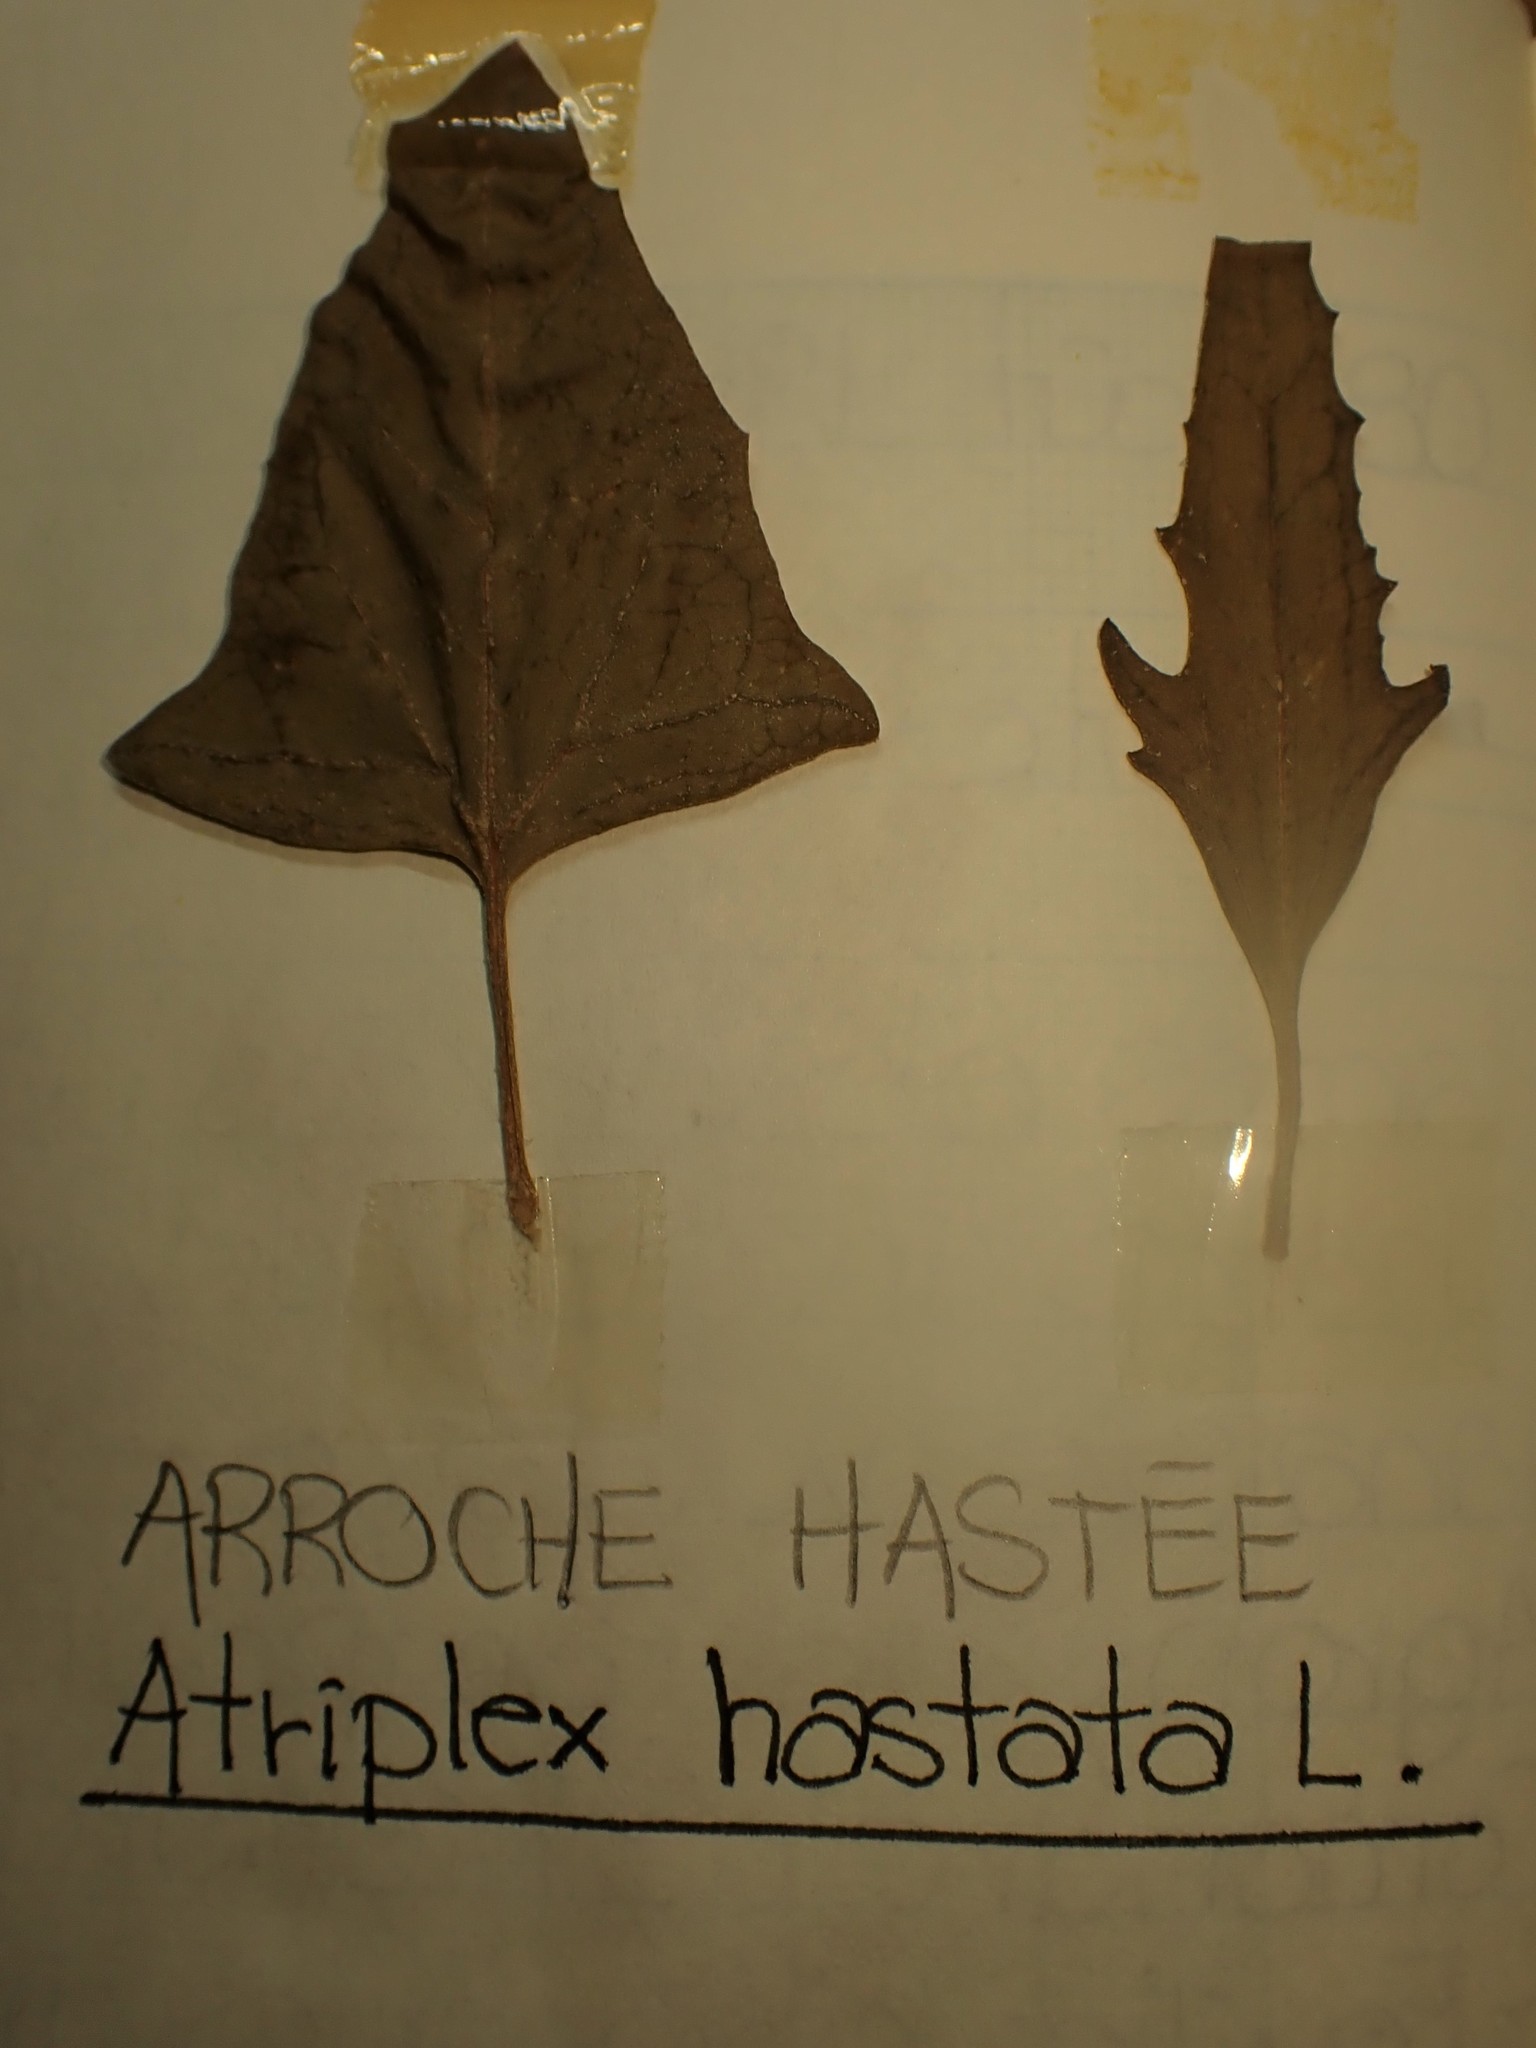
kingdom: Plantae
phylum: Tracheophyta
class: Magnoliopsida
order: Caryophyllales
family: Amaranthaceae
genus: Atriplex
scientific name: Atriplex prostrata
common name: Spear-leaved orache
